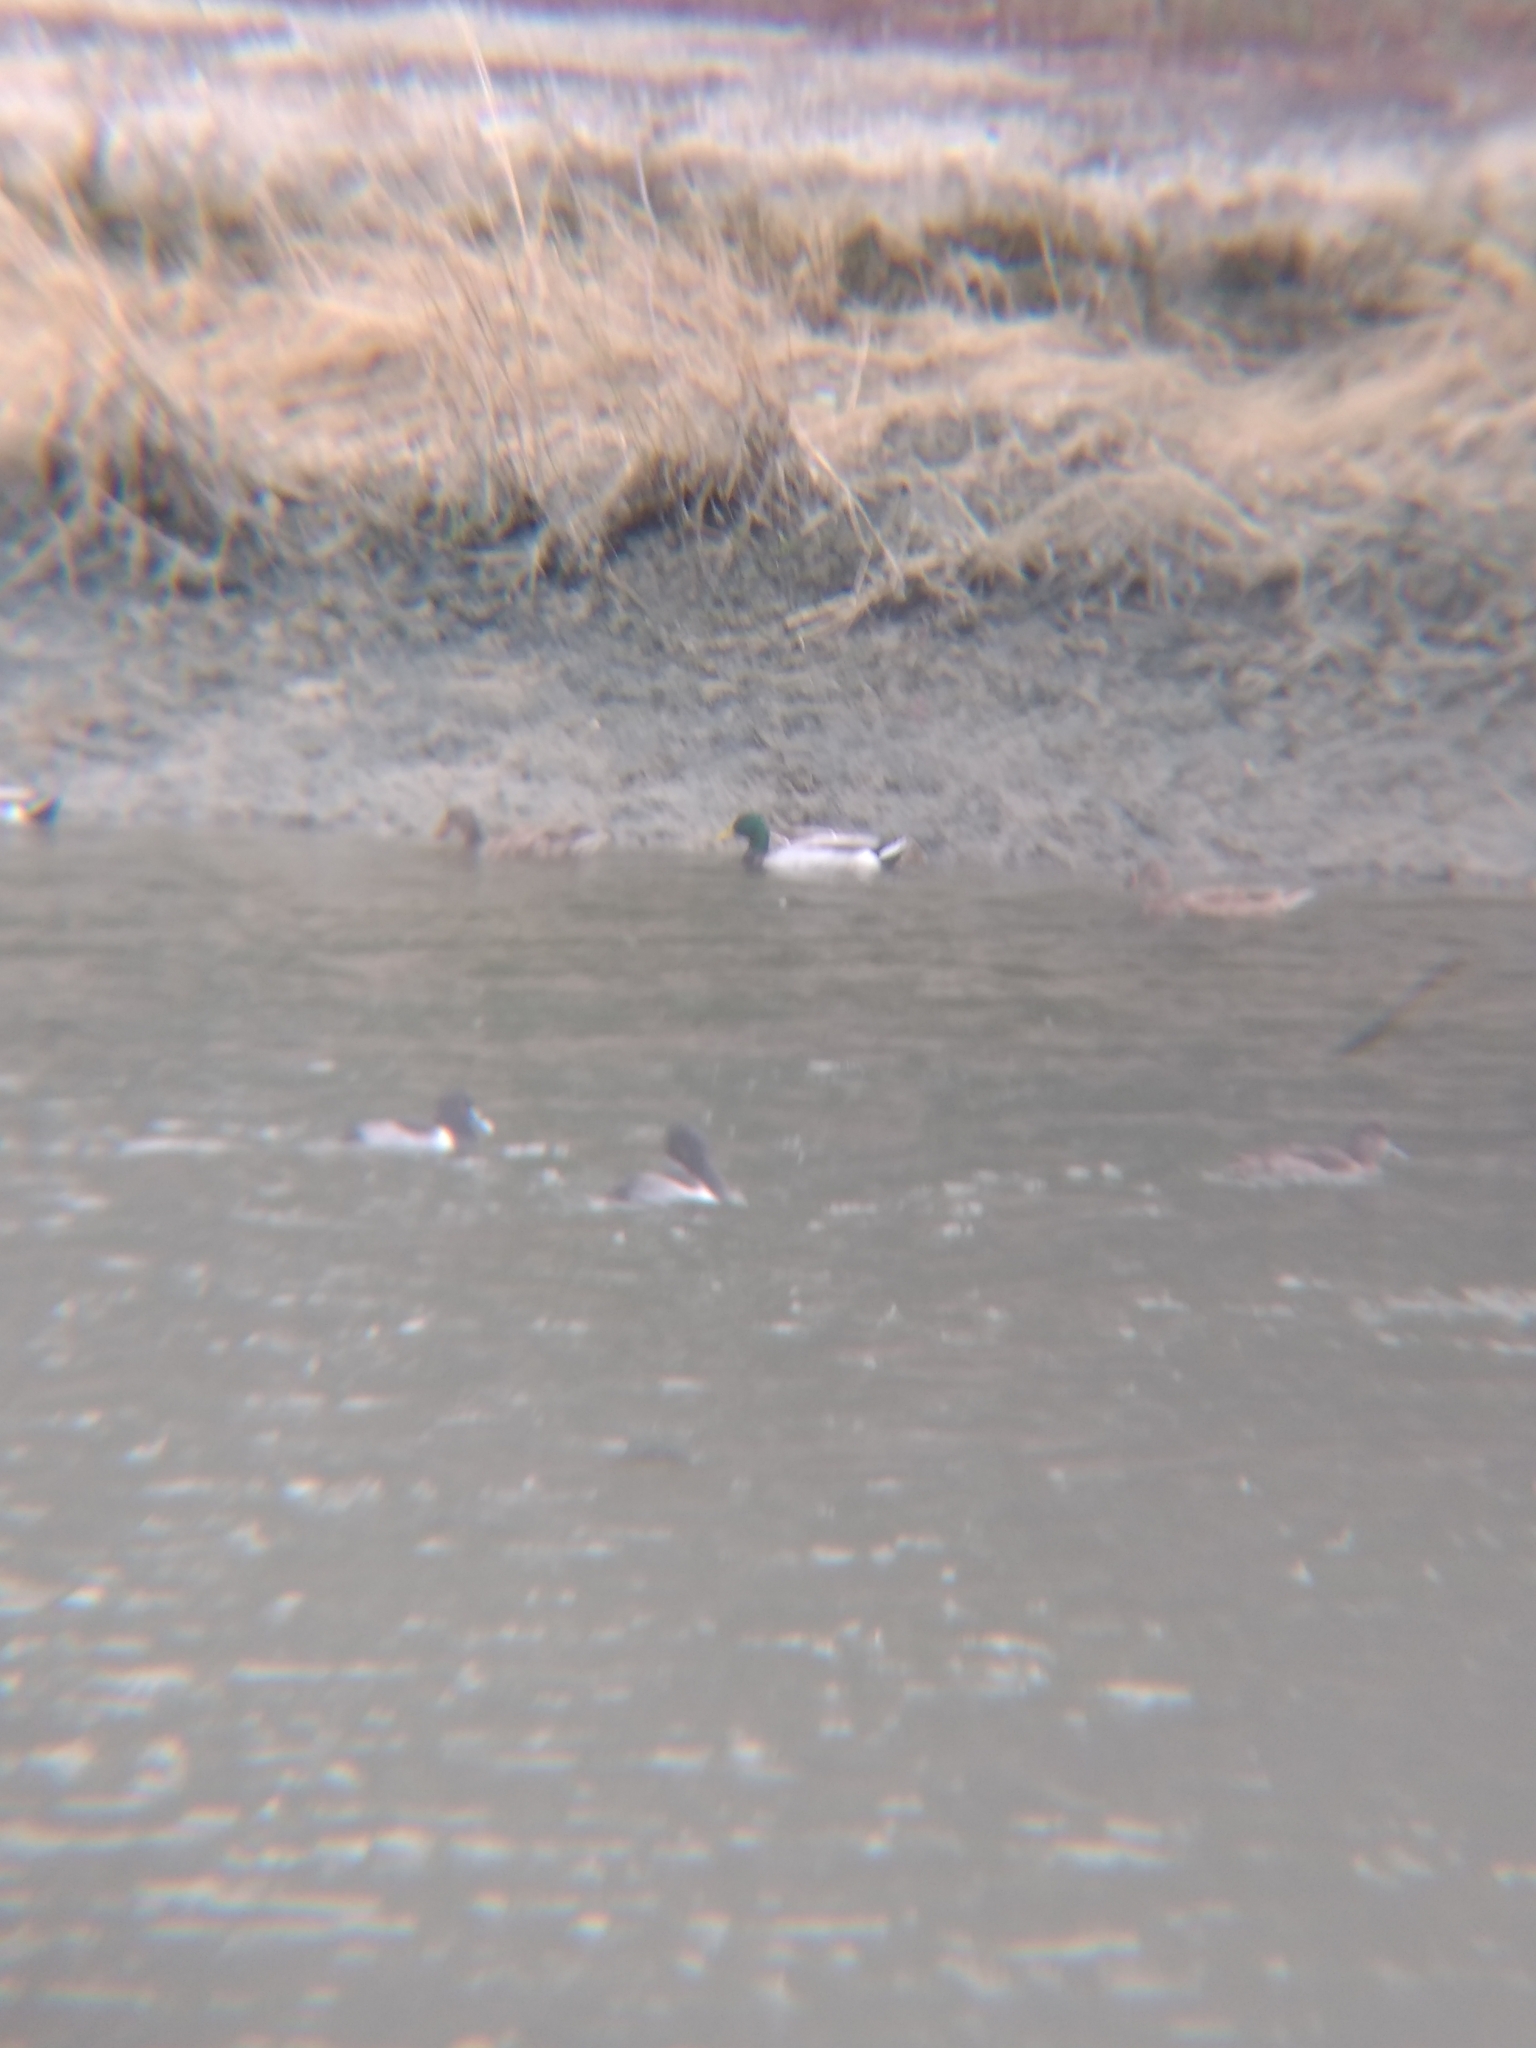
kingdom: Animalia
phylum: Chordata
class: Aves
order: Anseriformes
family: Anatidae
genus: Anas
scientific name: Anas platyrhynchos
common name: Mallard
